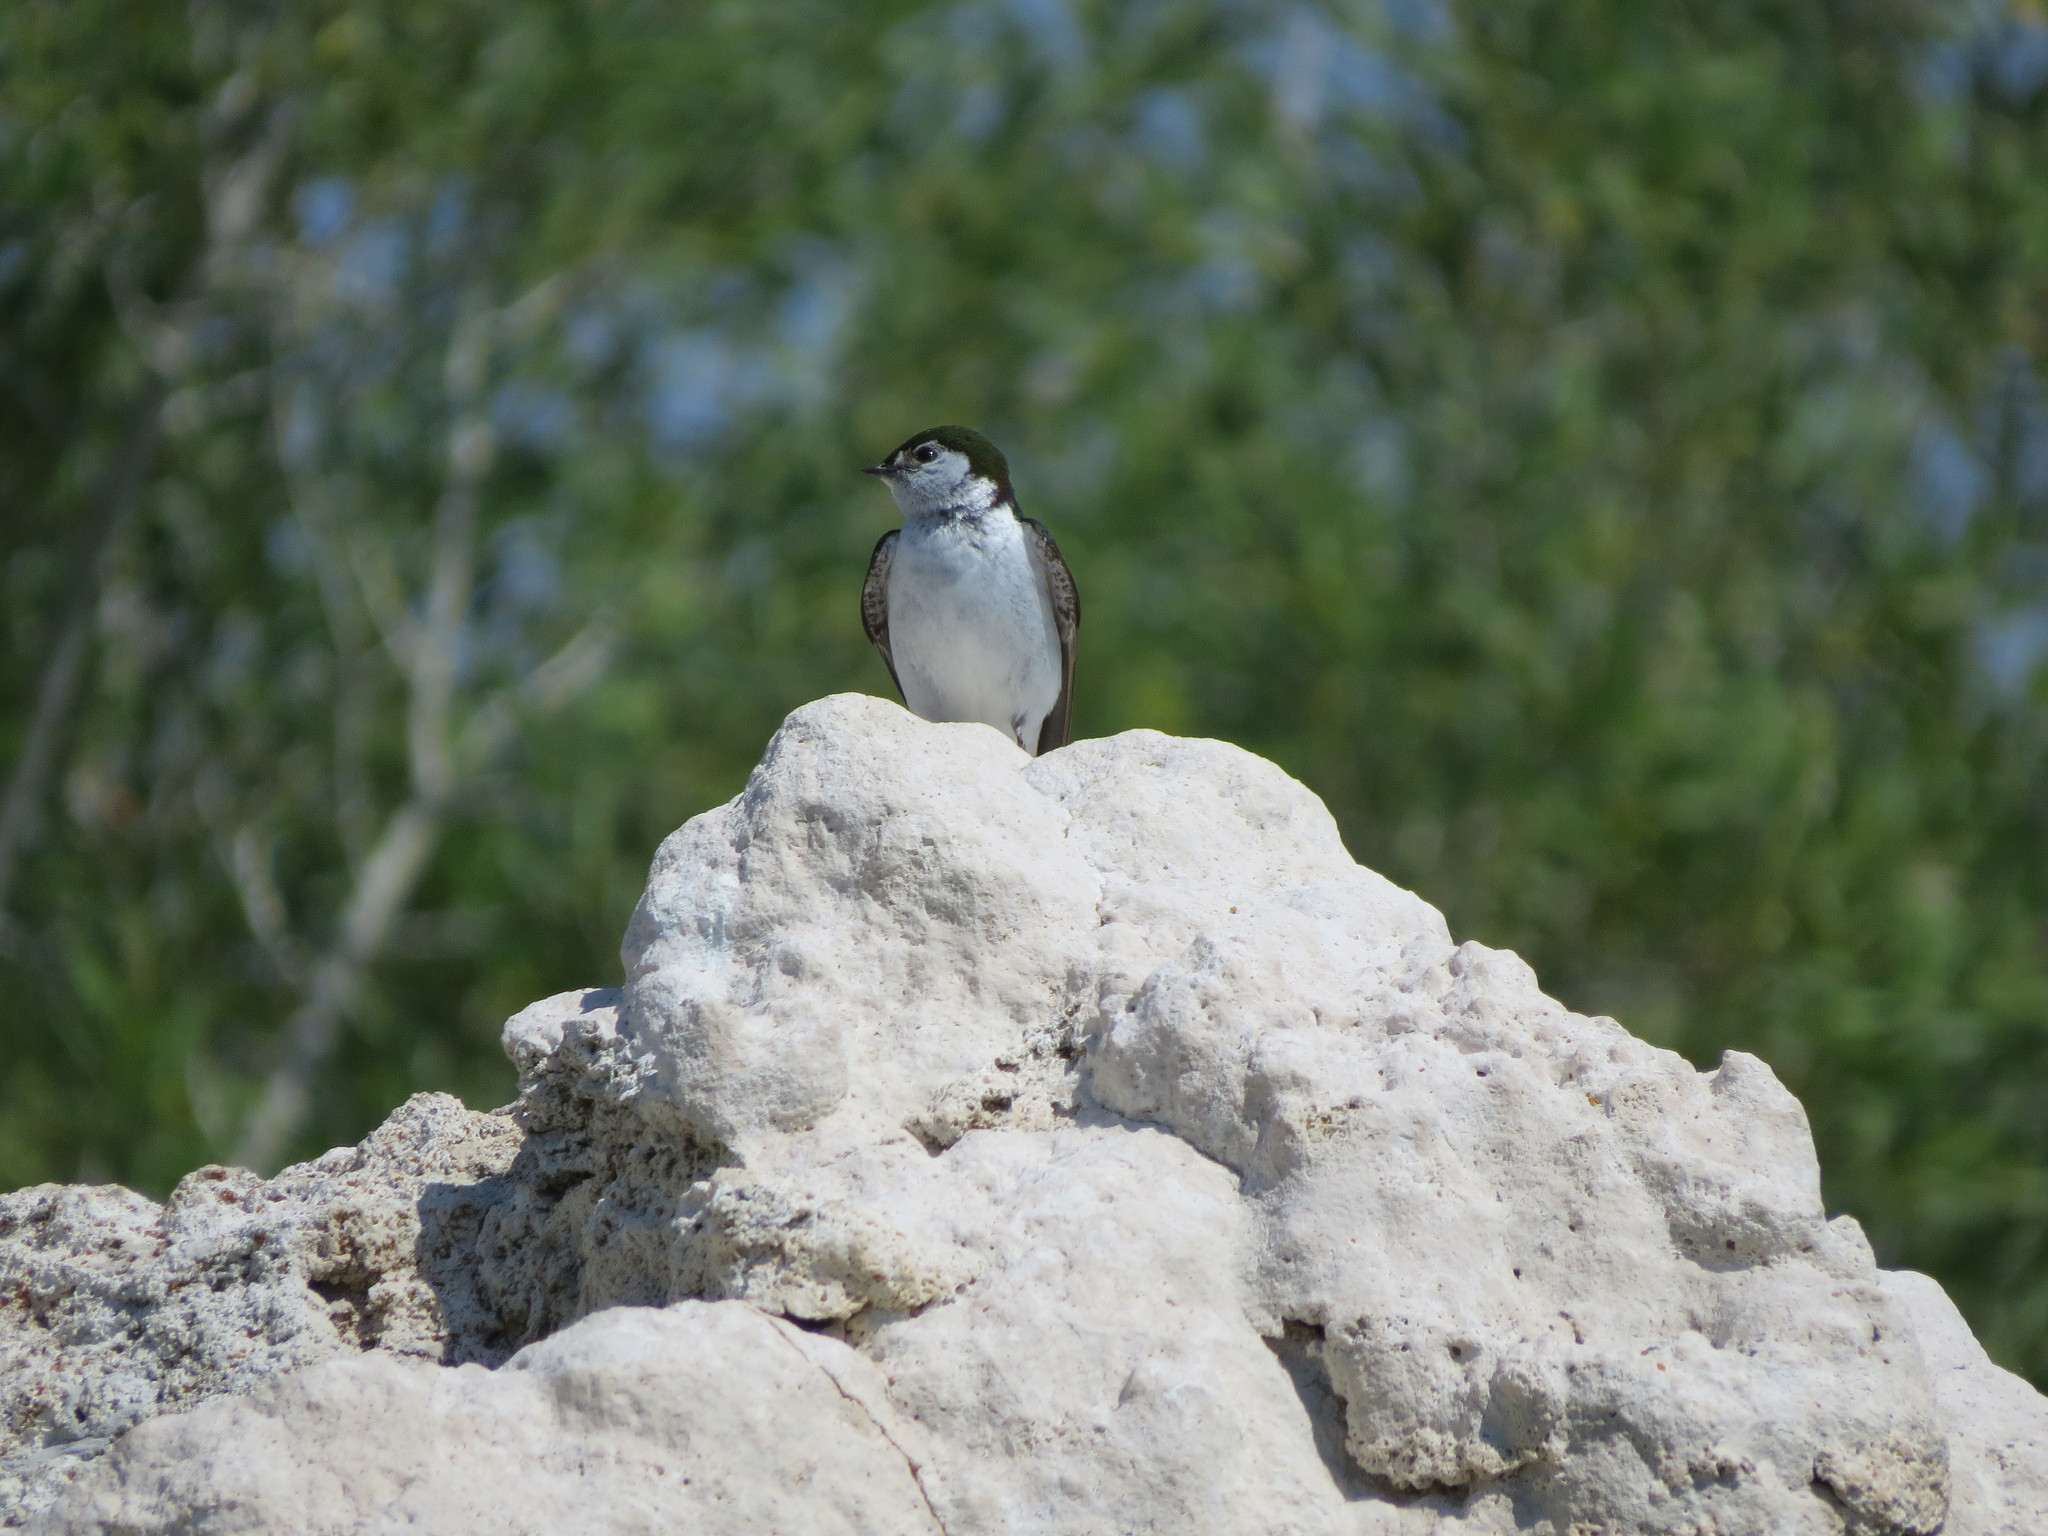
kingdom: Animalia
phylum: Chordata
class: Aves
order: Passeriformes
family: Hirundinidae
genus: Tachycineta
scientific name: Tachycineta thalassina
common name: Violet-green swallow
